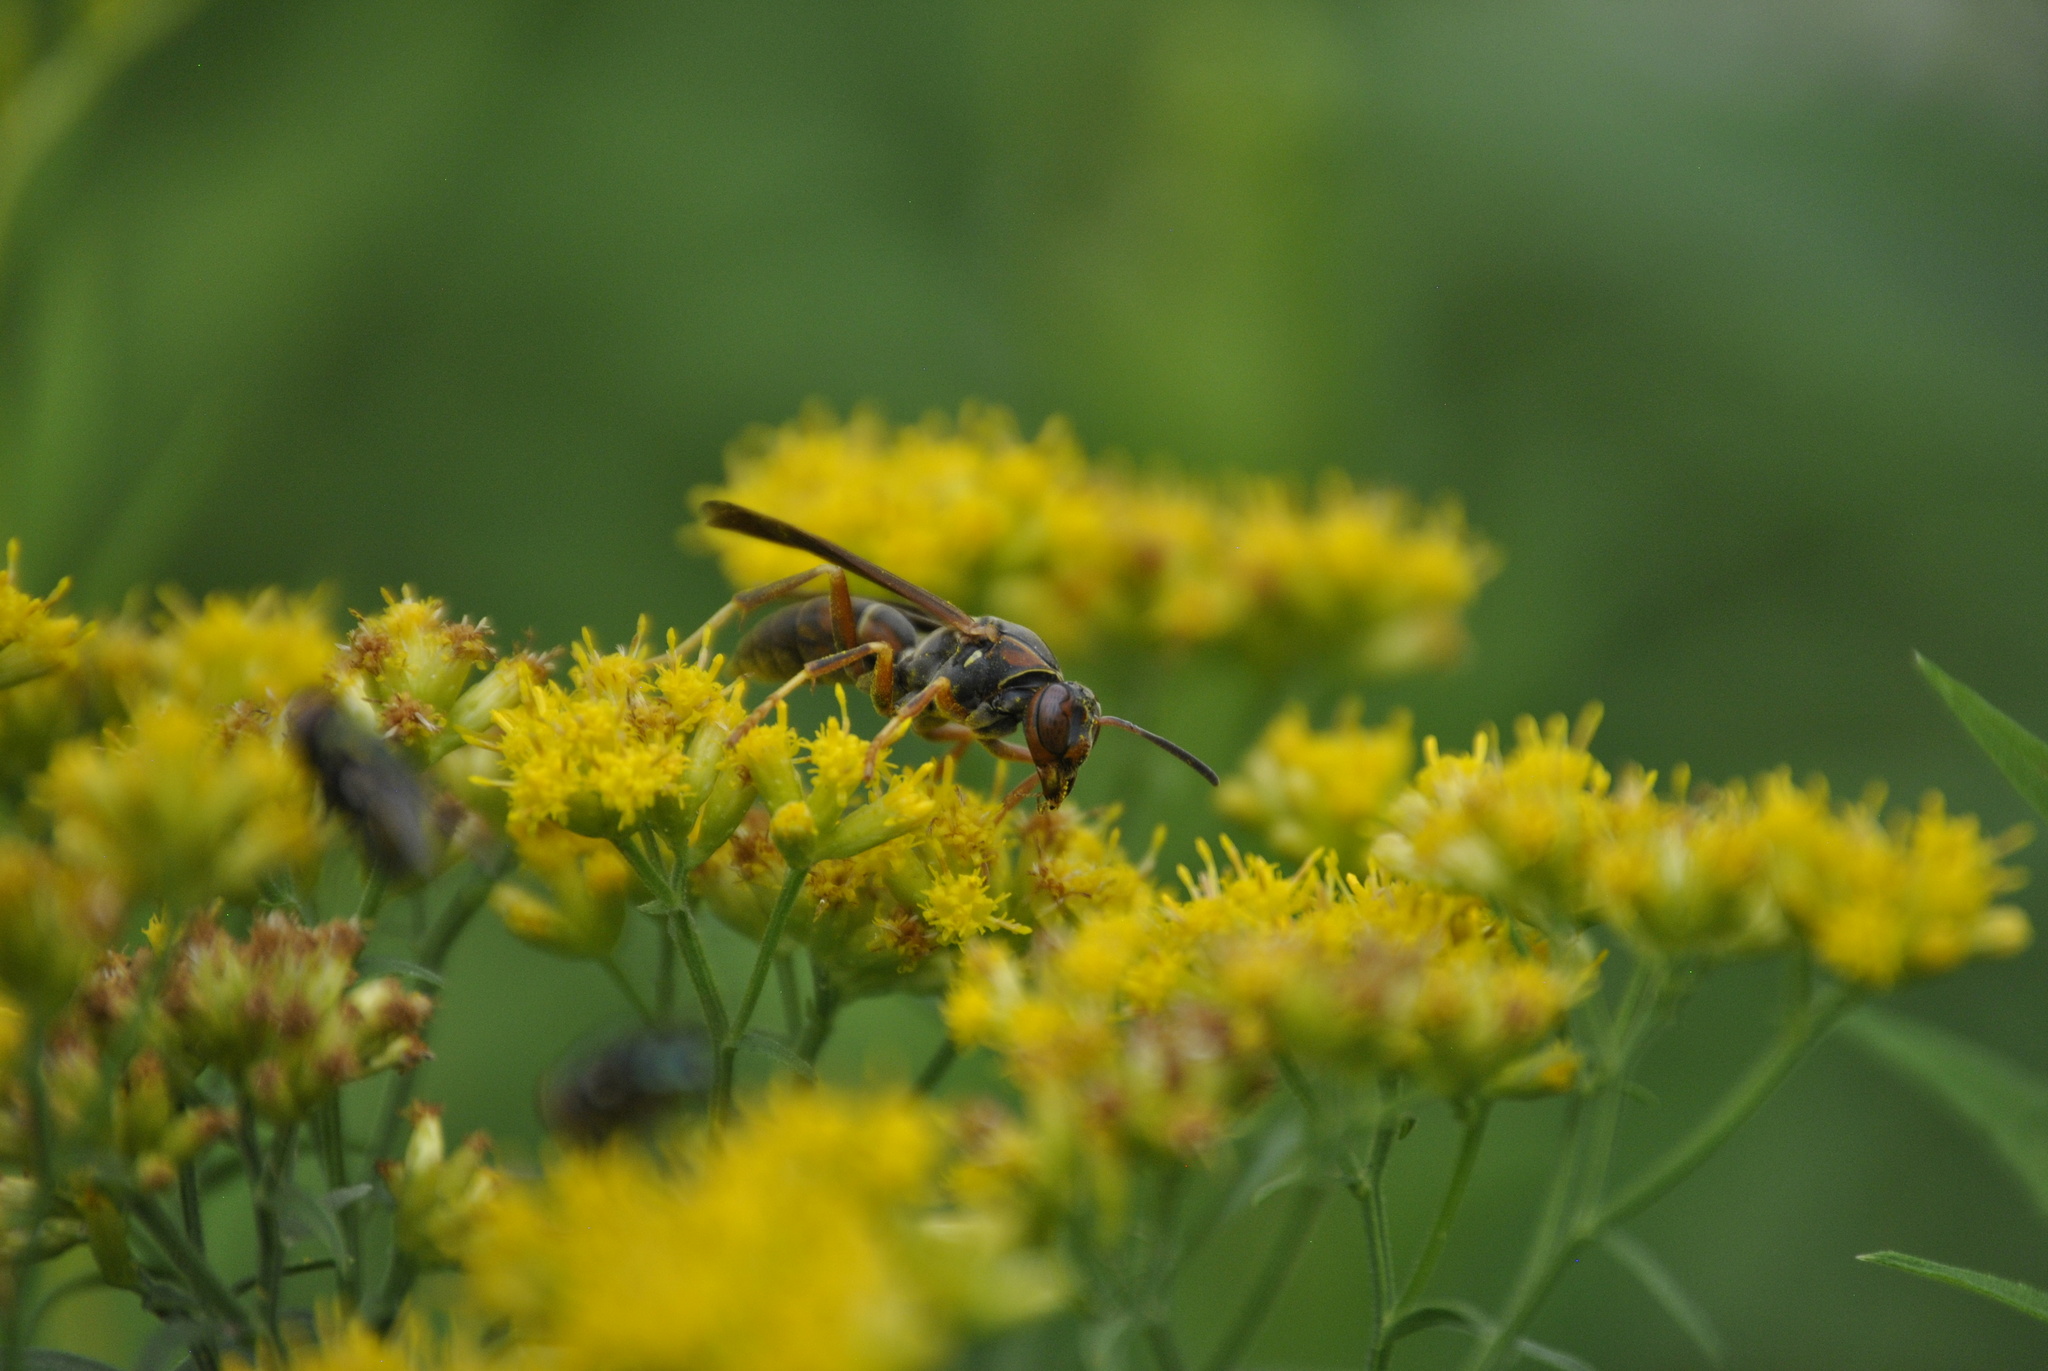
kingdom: Animalia
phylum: Arthropoda
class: Insecta
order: Hymenoptera
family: Eumenidae
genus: Polistes
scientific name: Polistes fuscatus
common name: Dark paper wasp
